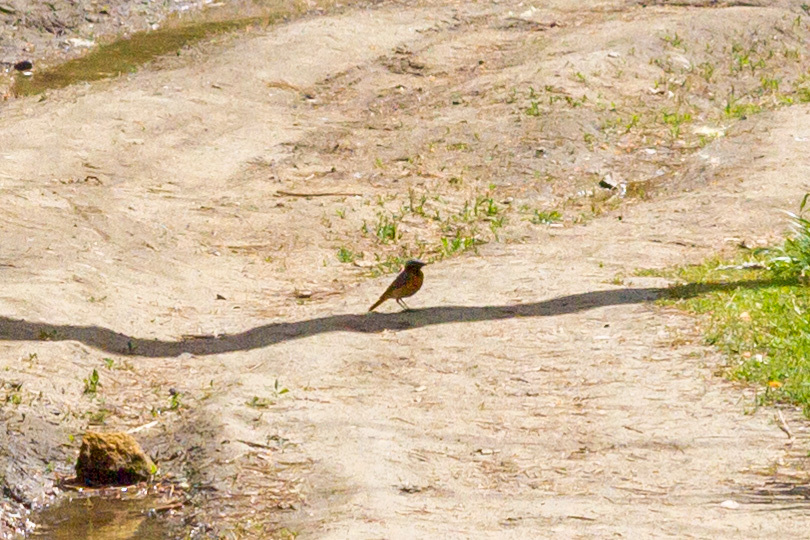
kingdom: Animalia
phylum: Chordata
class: Aves
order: Passeriformes
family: Muscicapidae
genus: Phoenicurus
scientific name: Phoenicurus phoenicurus
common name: Common redstart
